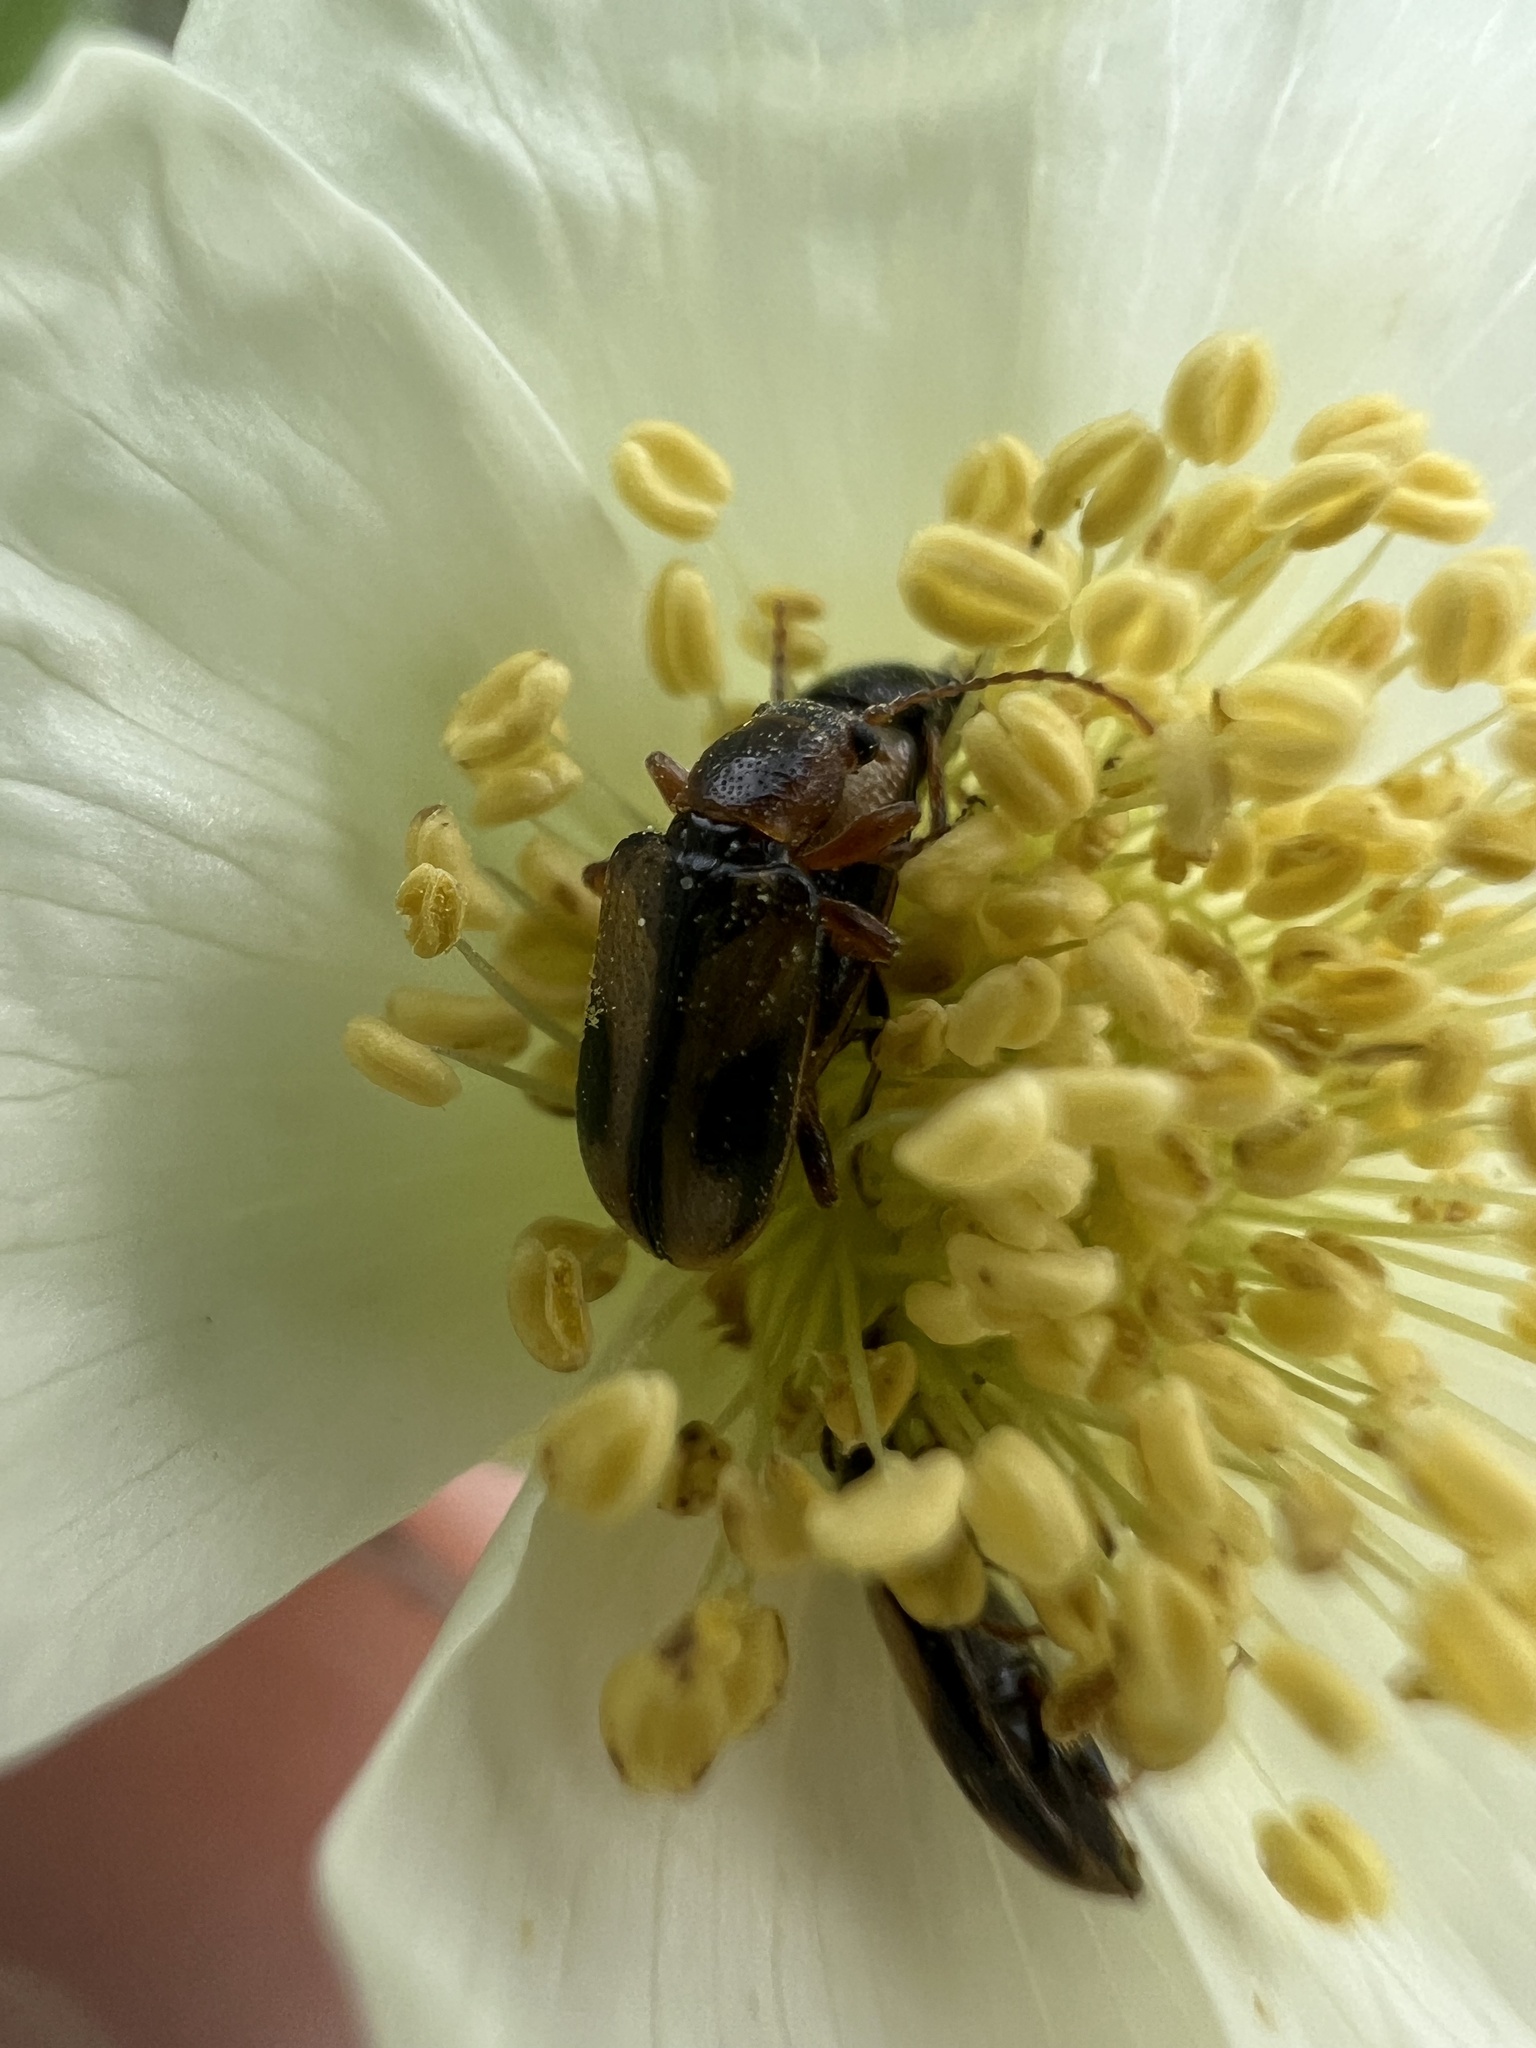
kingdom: Animalia
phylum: Arthropoda
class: Insecta
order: Coleoptera
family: Orsodacnidae
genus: Orsodacne
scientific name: Orsodacne atra
